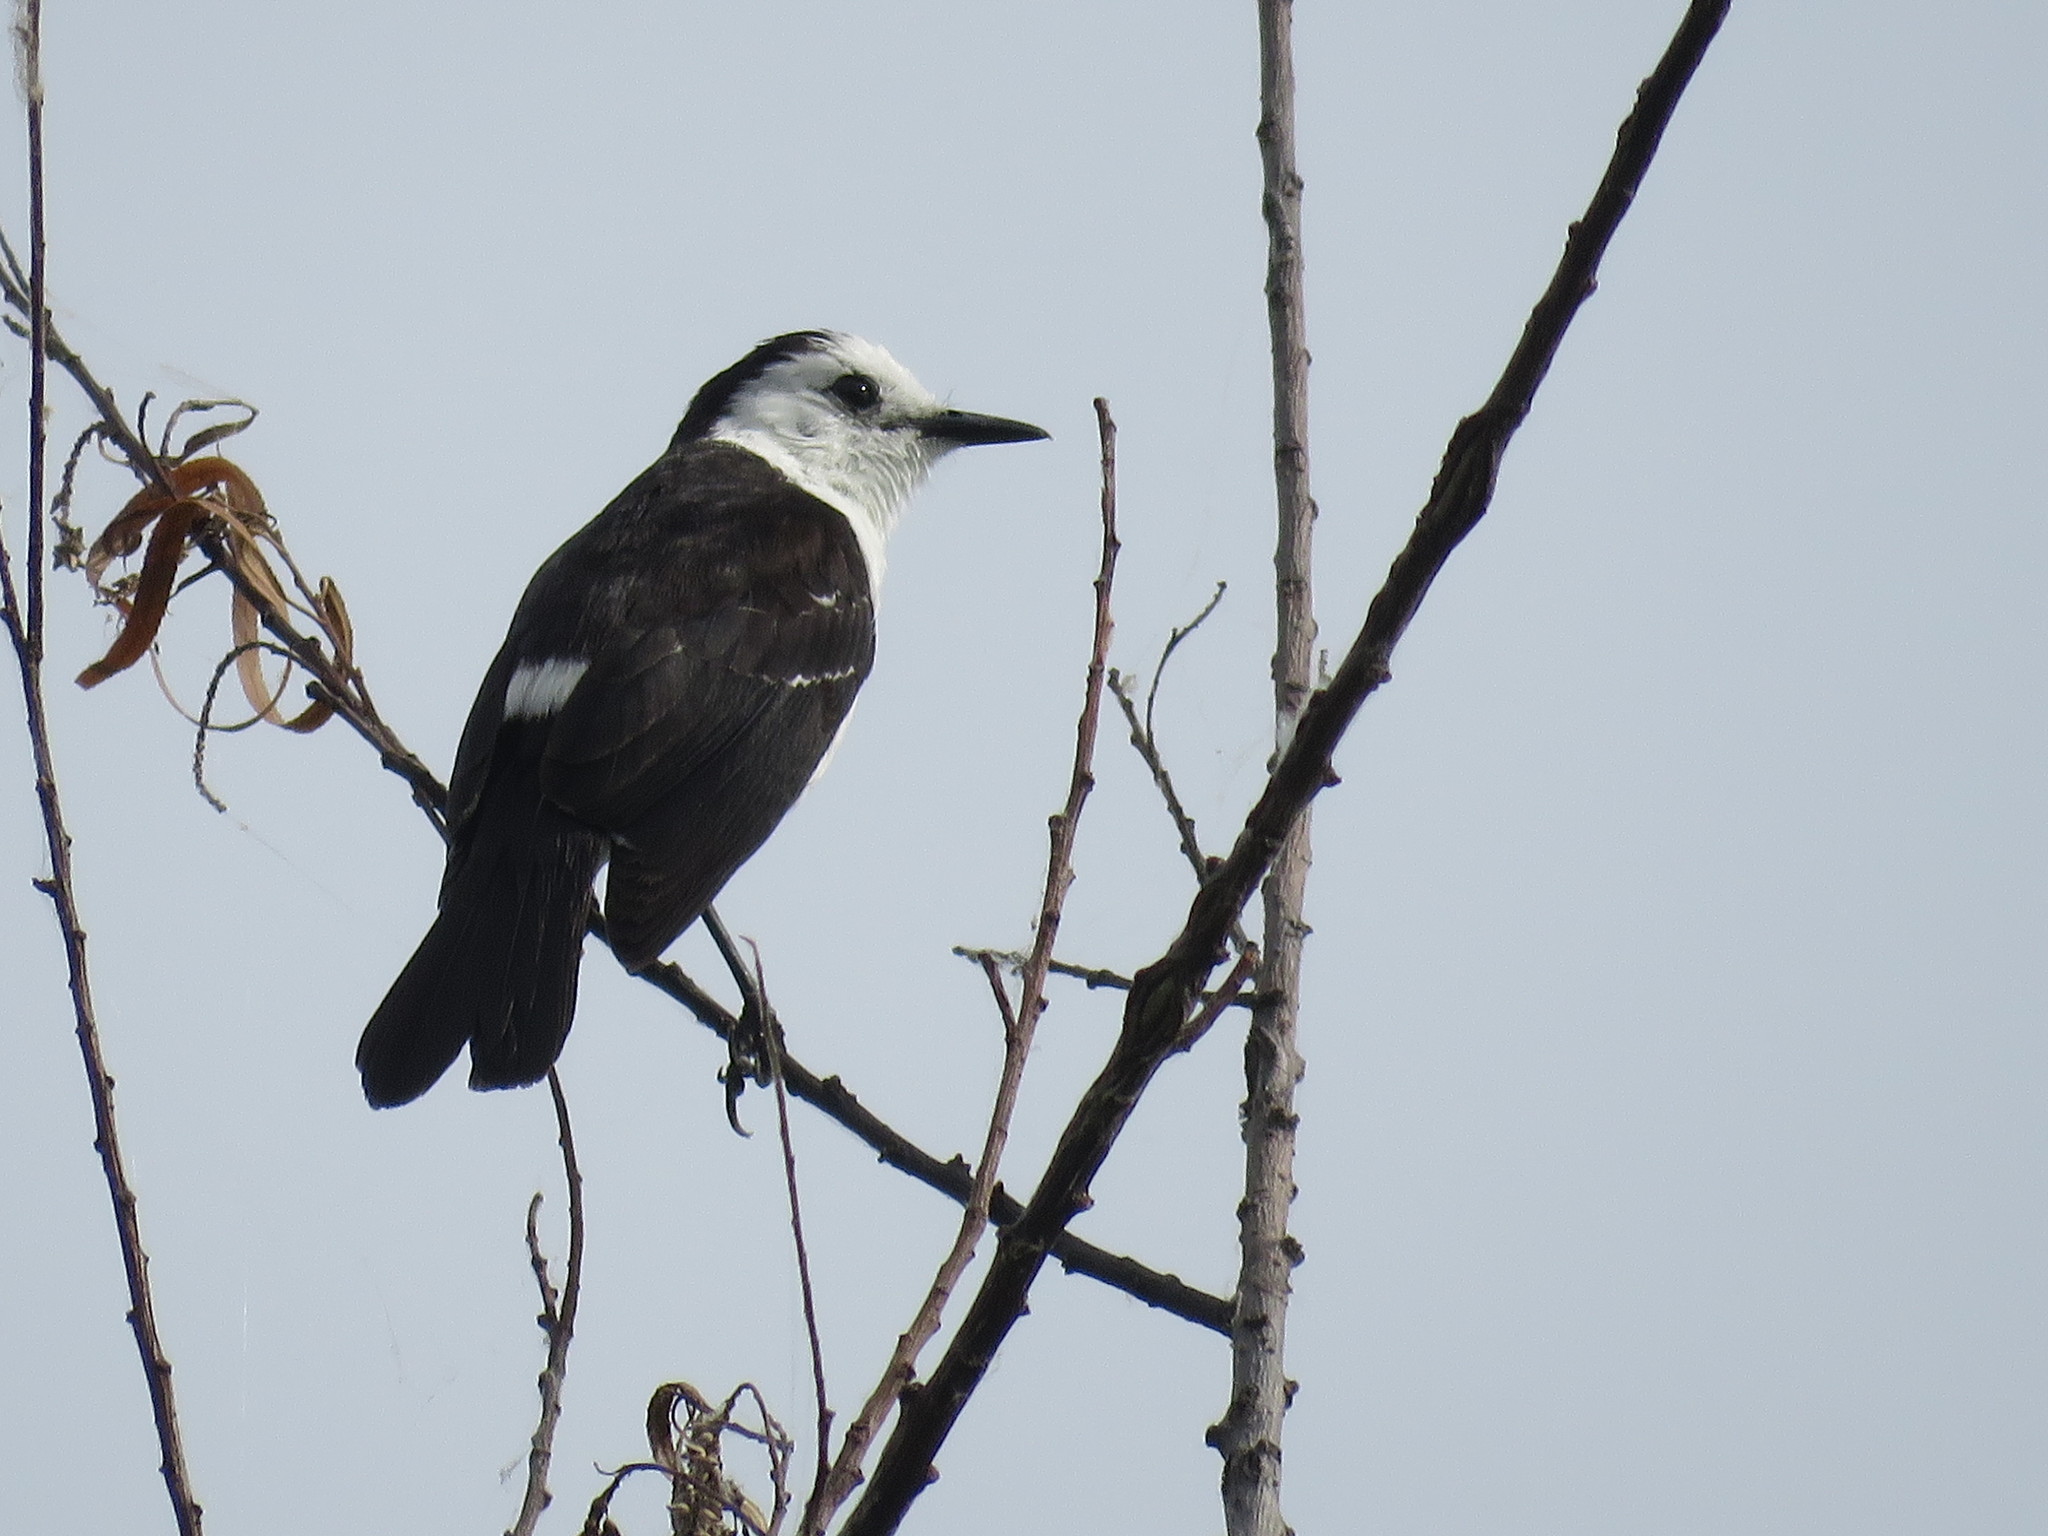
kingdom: Animalia
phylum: Chordata
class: Aves
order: Passeriformes
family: Tyrannidae
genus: Fluvicola
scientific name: Fluvicola pica
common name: Pied water-tyrant
